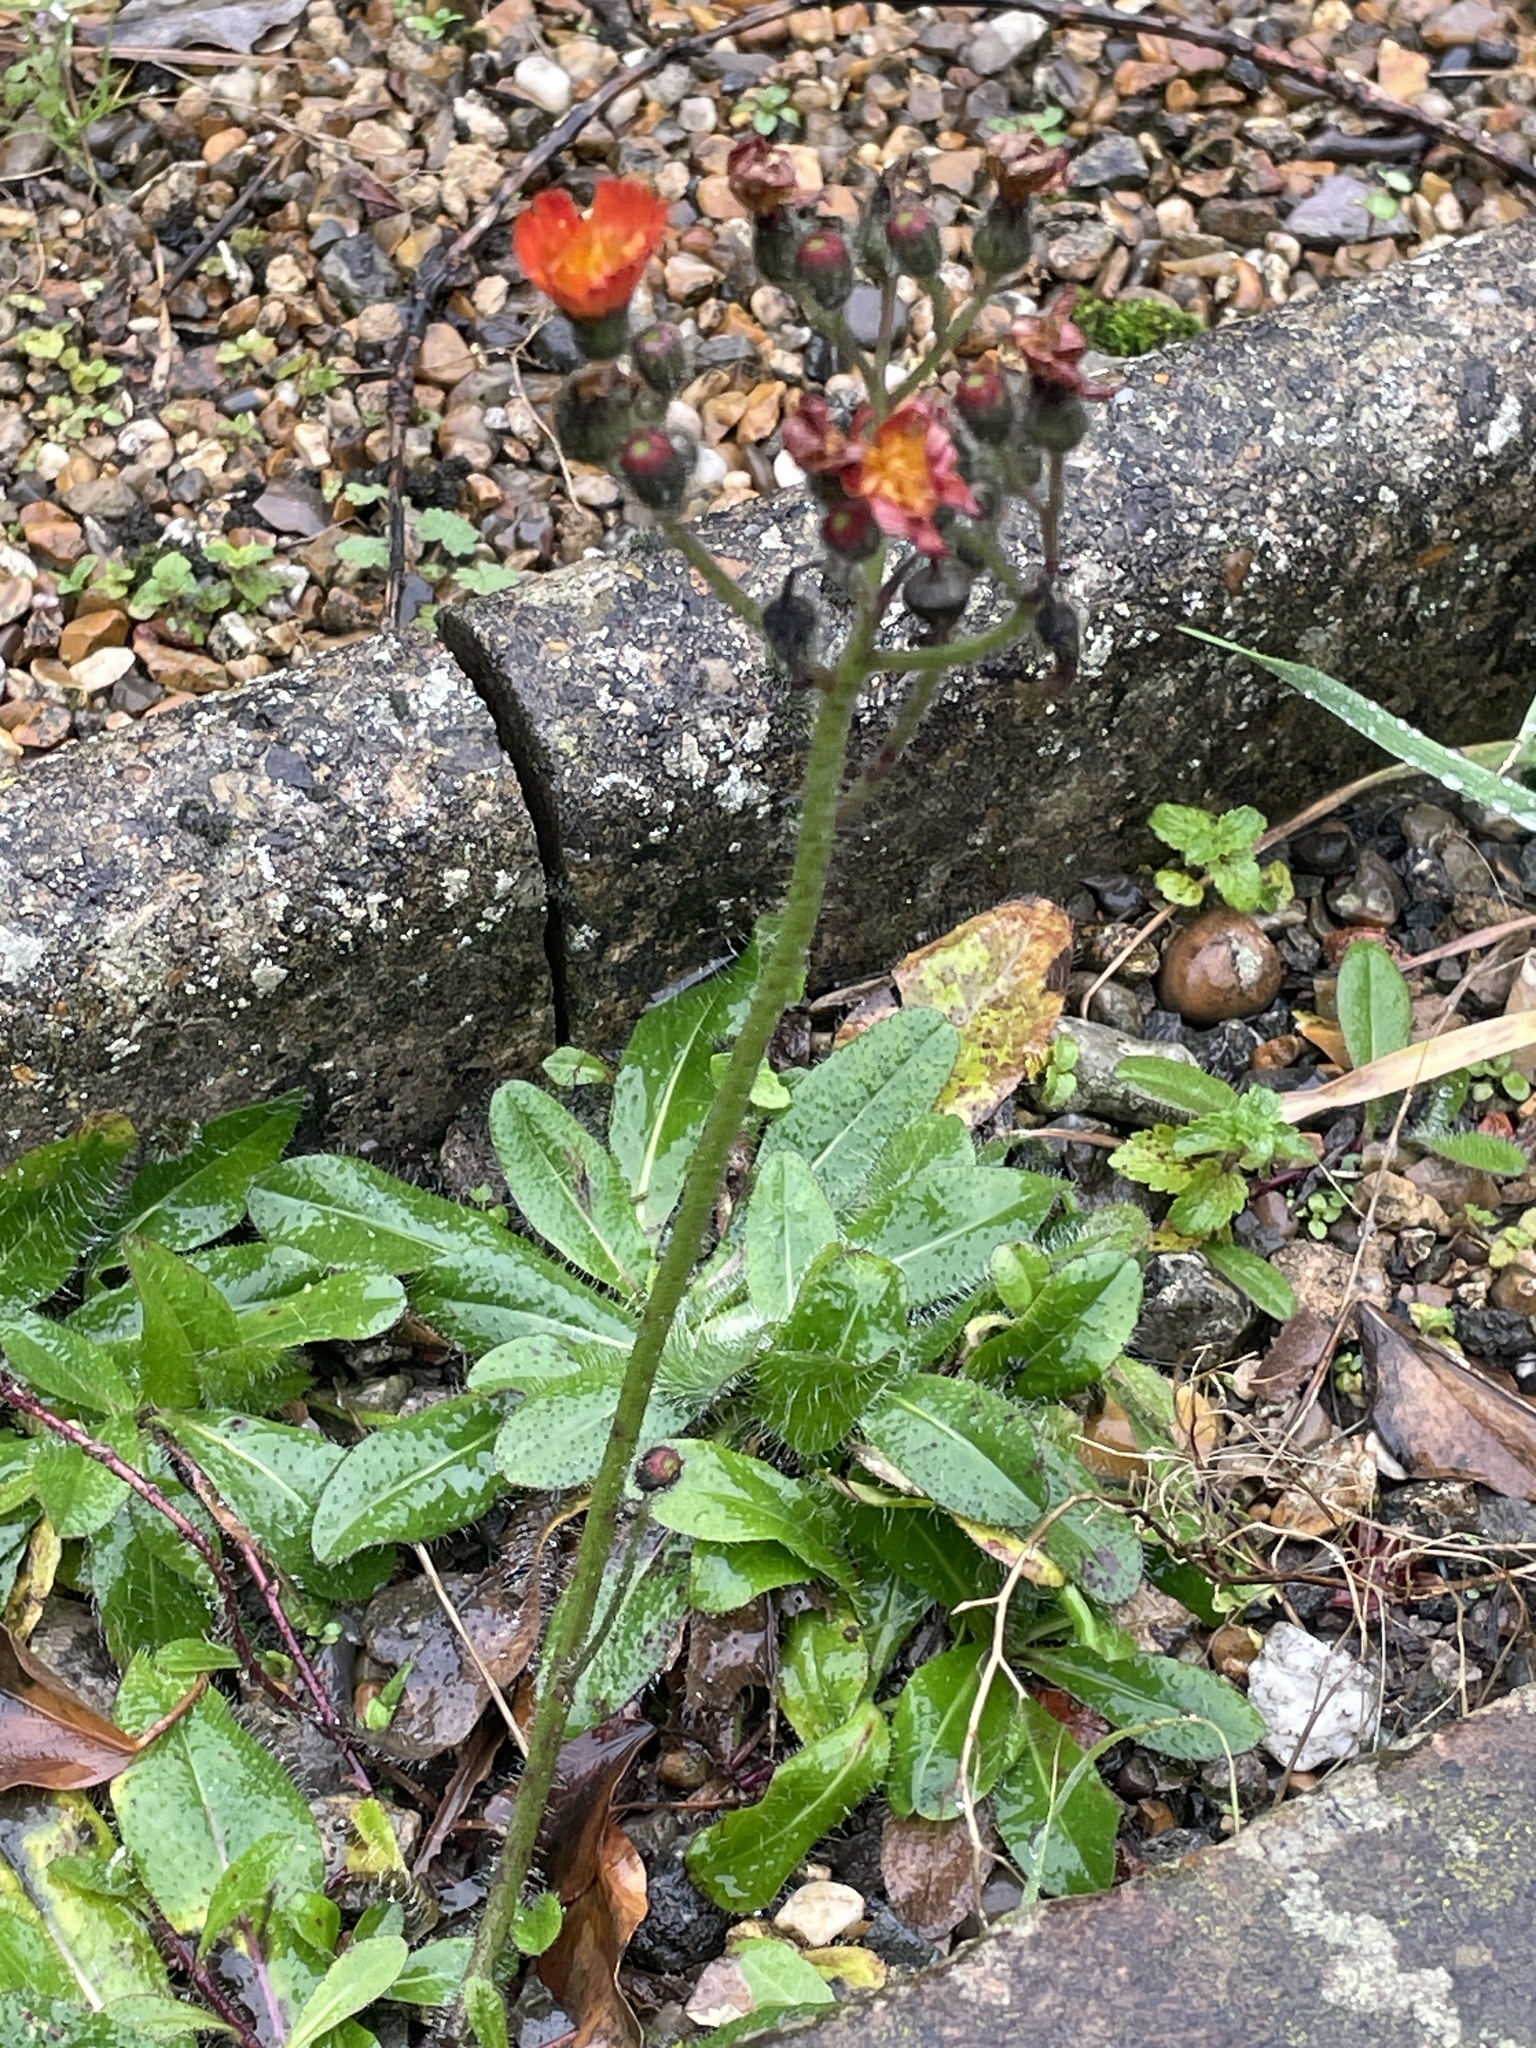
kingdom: Plantae
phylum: Tracheophyta
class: Magnoliopsida
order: Asterales
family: Asteraceae
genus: Pilosella
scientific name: Pilosella aurantiaca
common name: Fox-and-cubs
